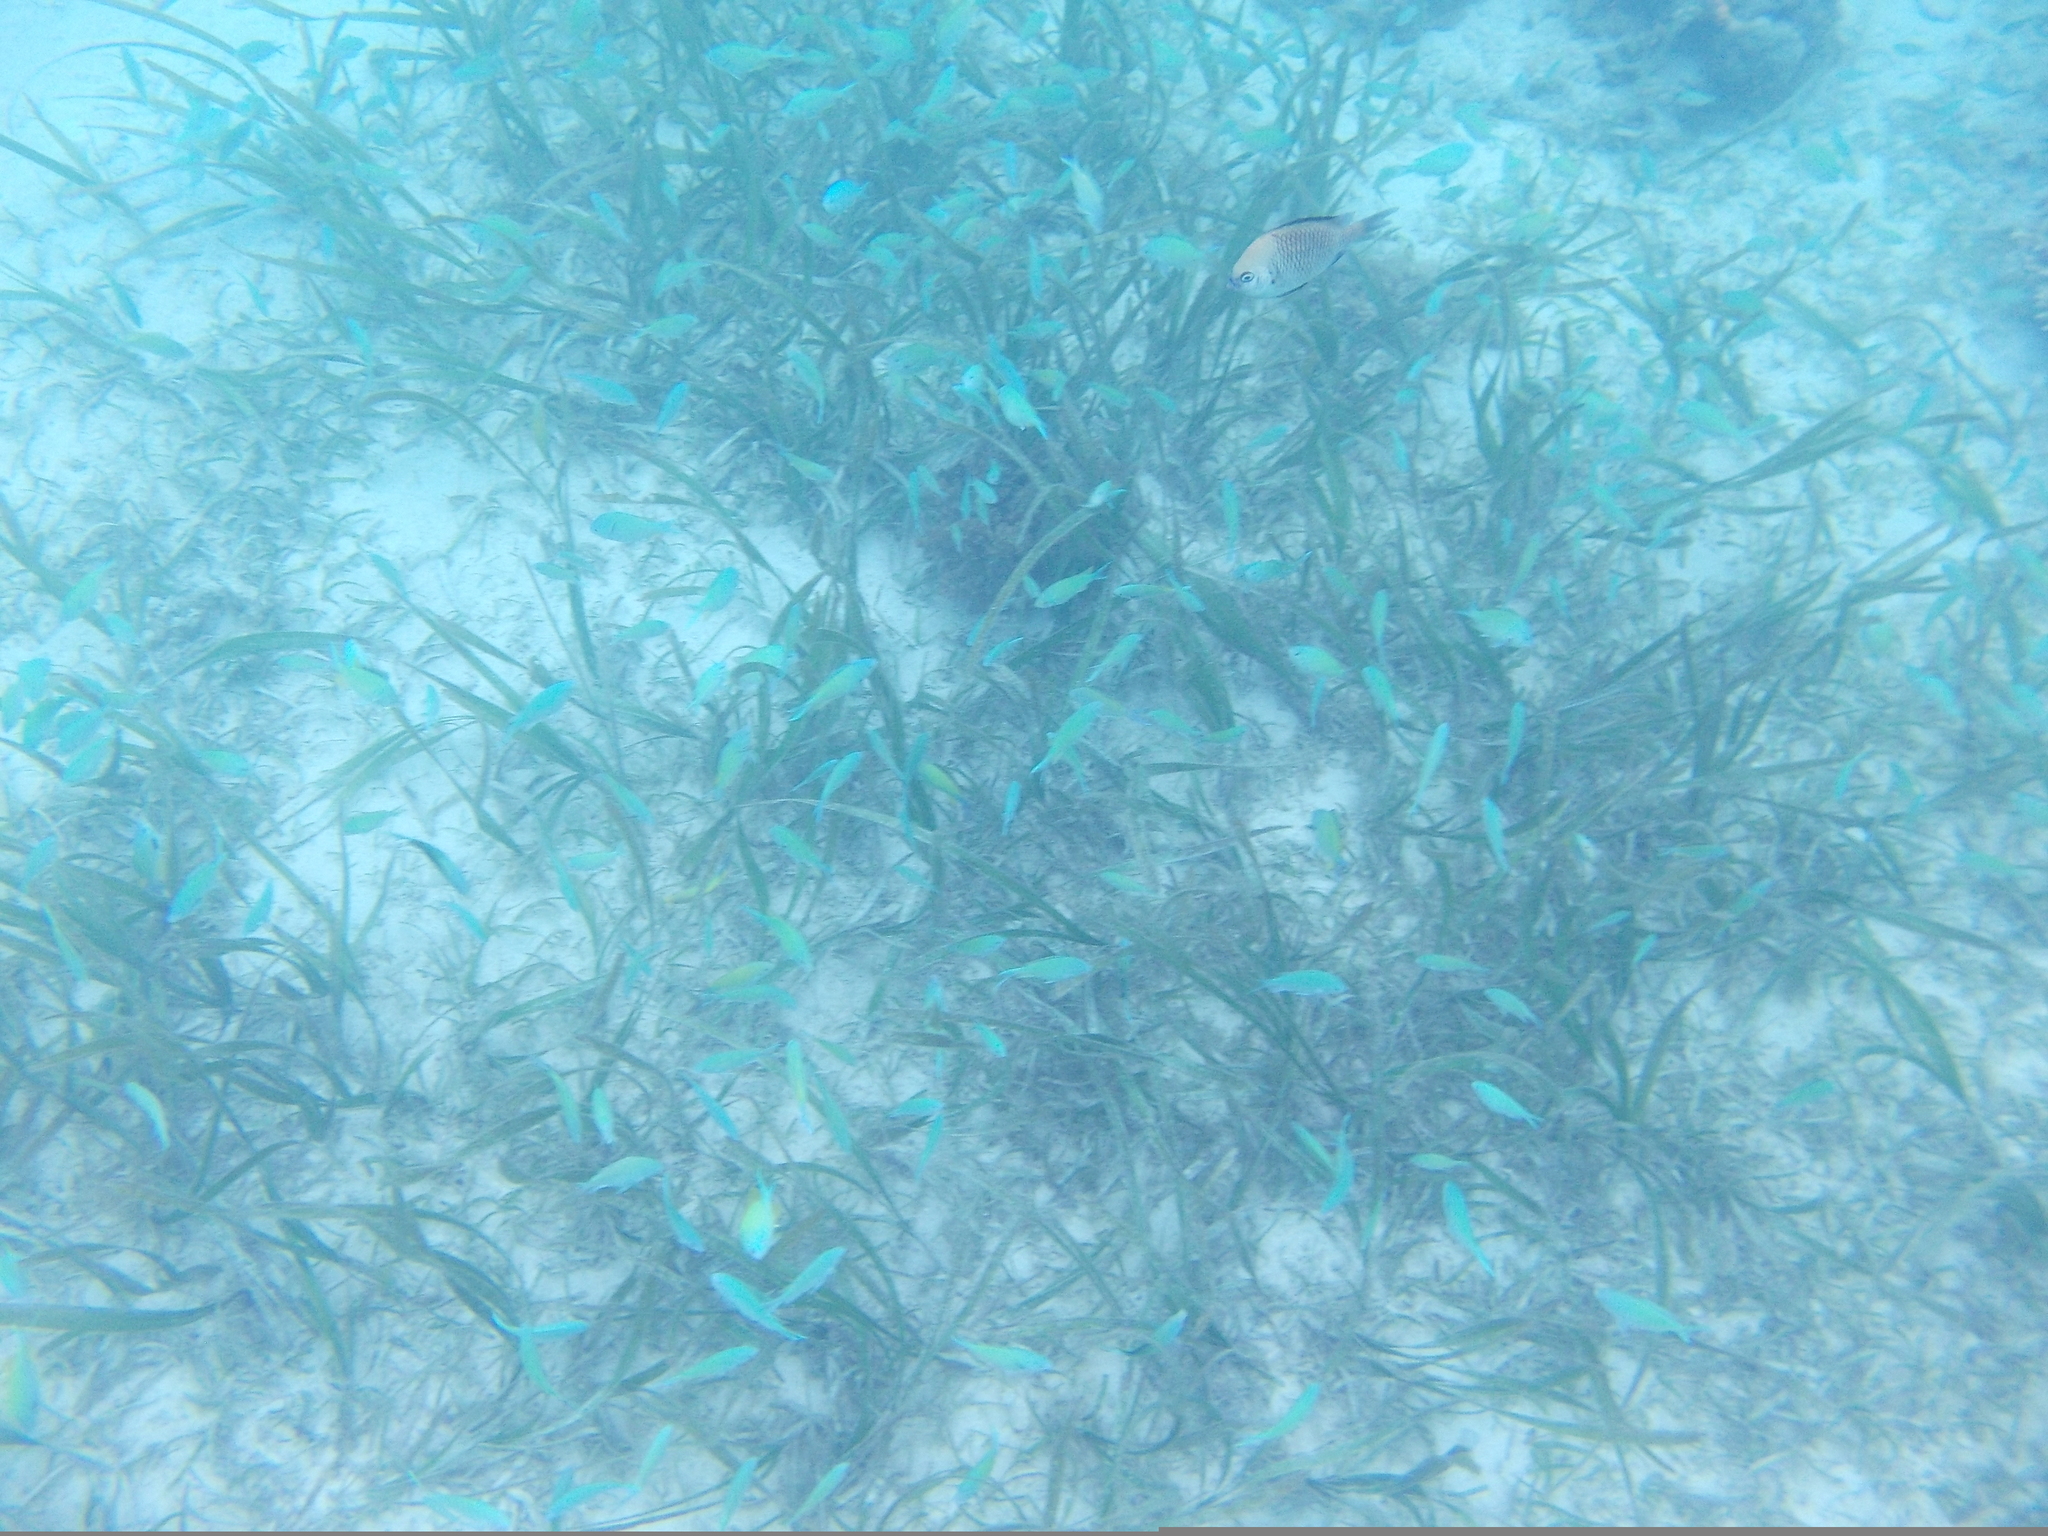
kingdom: Animalia
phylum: Chordata
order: Perciformes
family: Pomacentridae
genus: Chromis
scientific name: Chromis viridis
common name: Blue-green chromis
